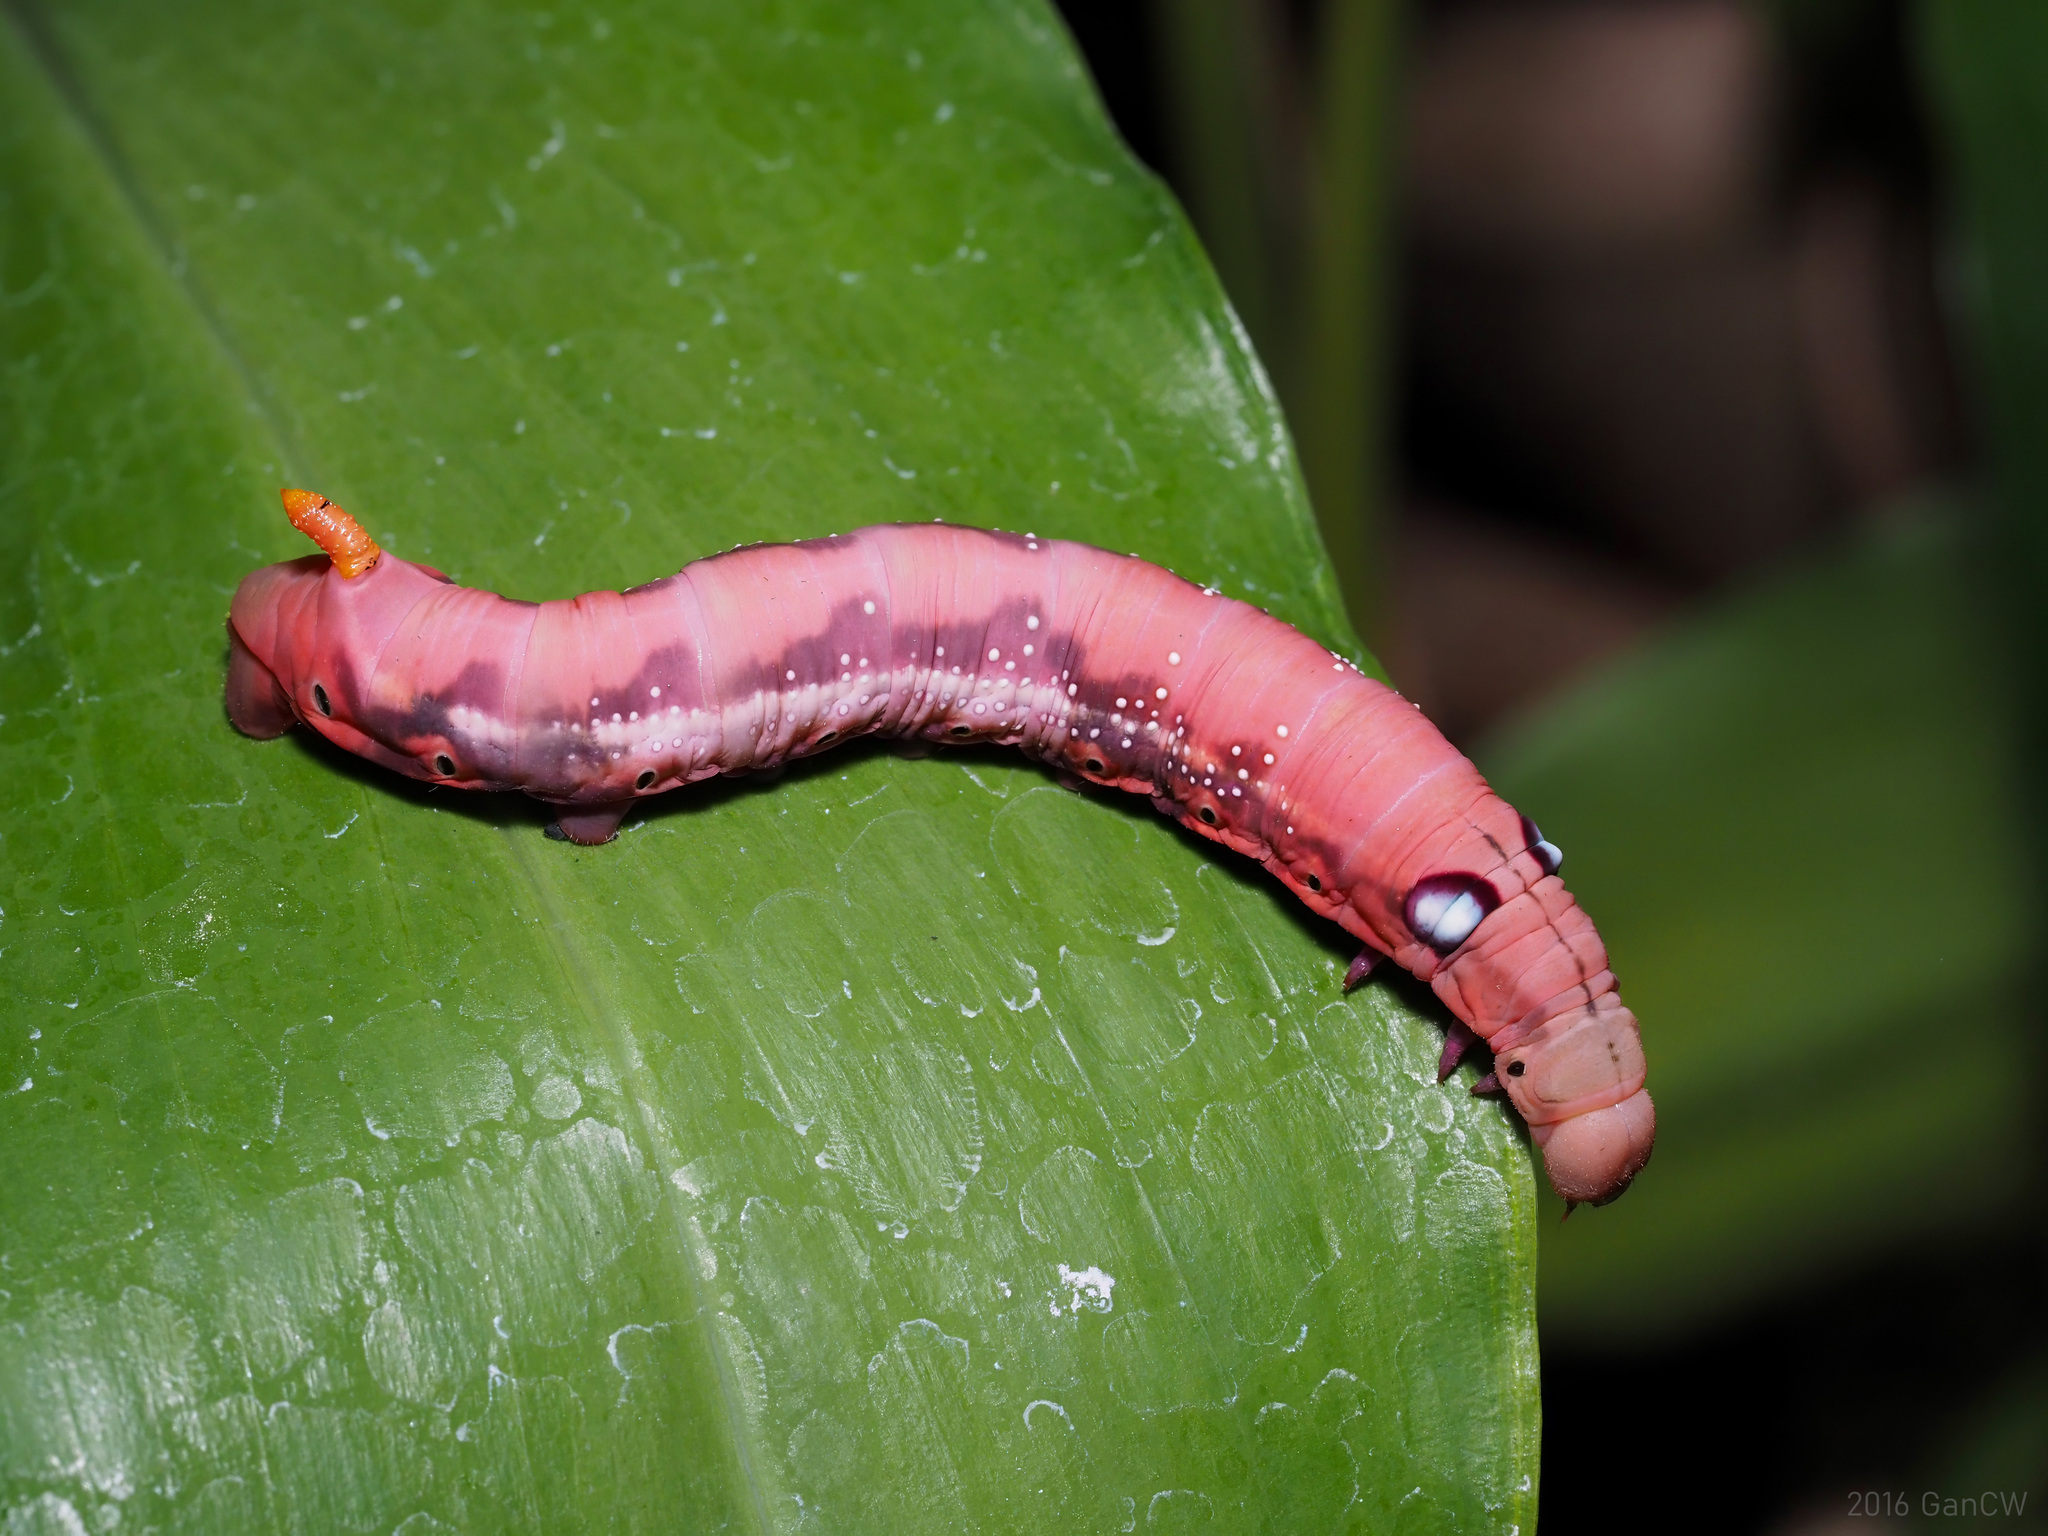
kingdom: Animalia
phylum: Arthropoda
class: Insecta
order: Lepidoptera
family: Sphingidae
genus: Daphnis
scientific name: Daphnis nerii
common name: Oleander hawk-moth
